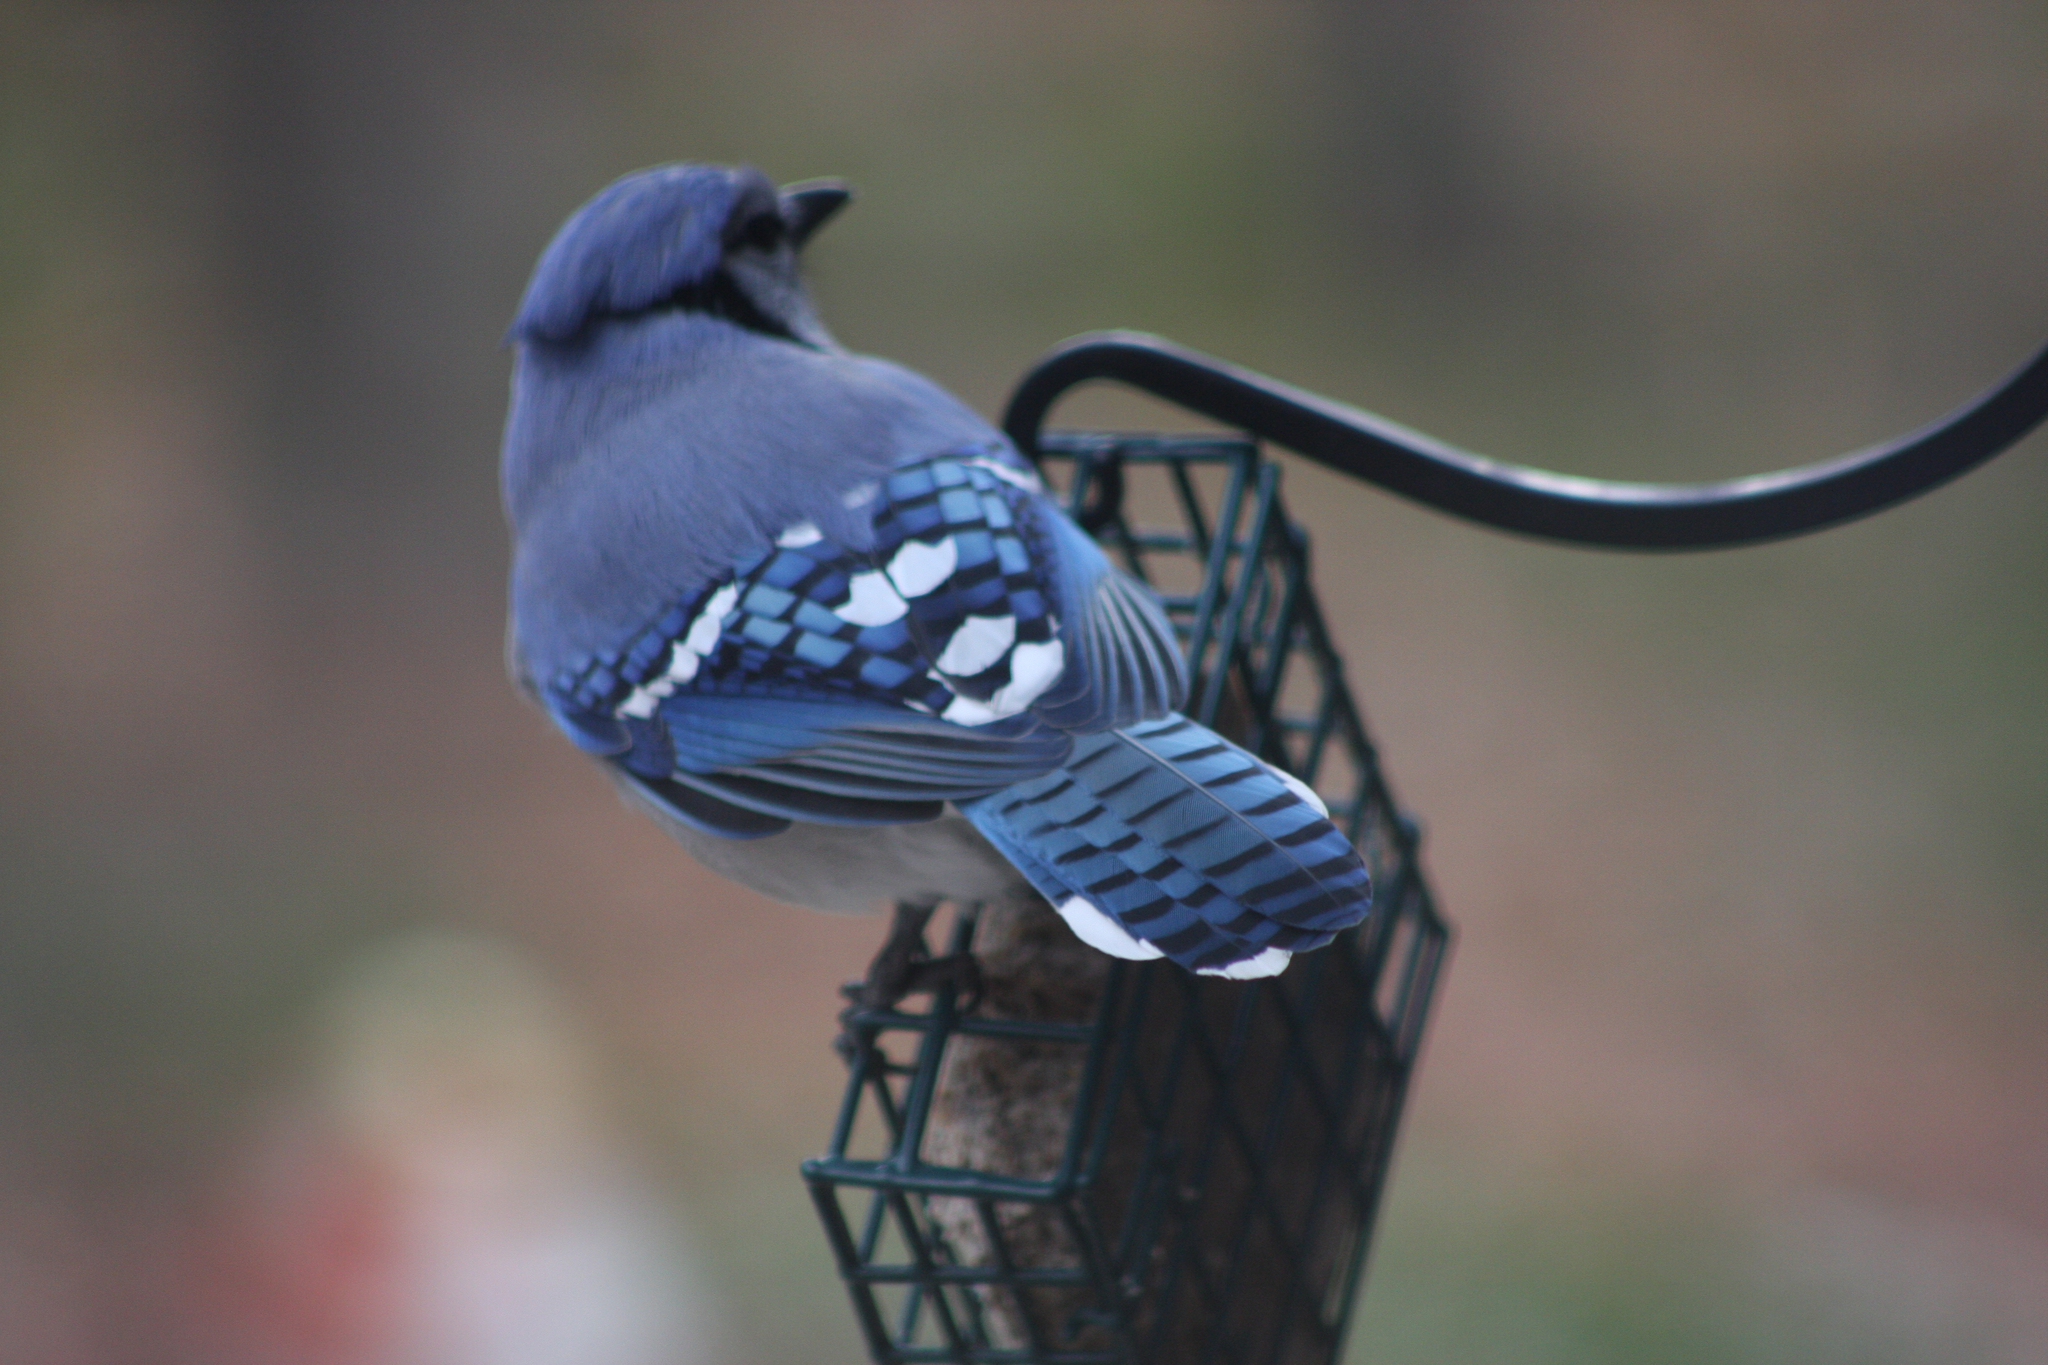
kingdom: Animalia
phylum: Chordata
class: Aves
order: Passeriformes
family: Corvidae
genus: Cyanocitta
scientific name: Cyanocitta cristata
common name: Blue jay
